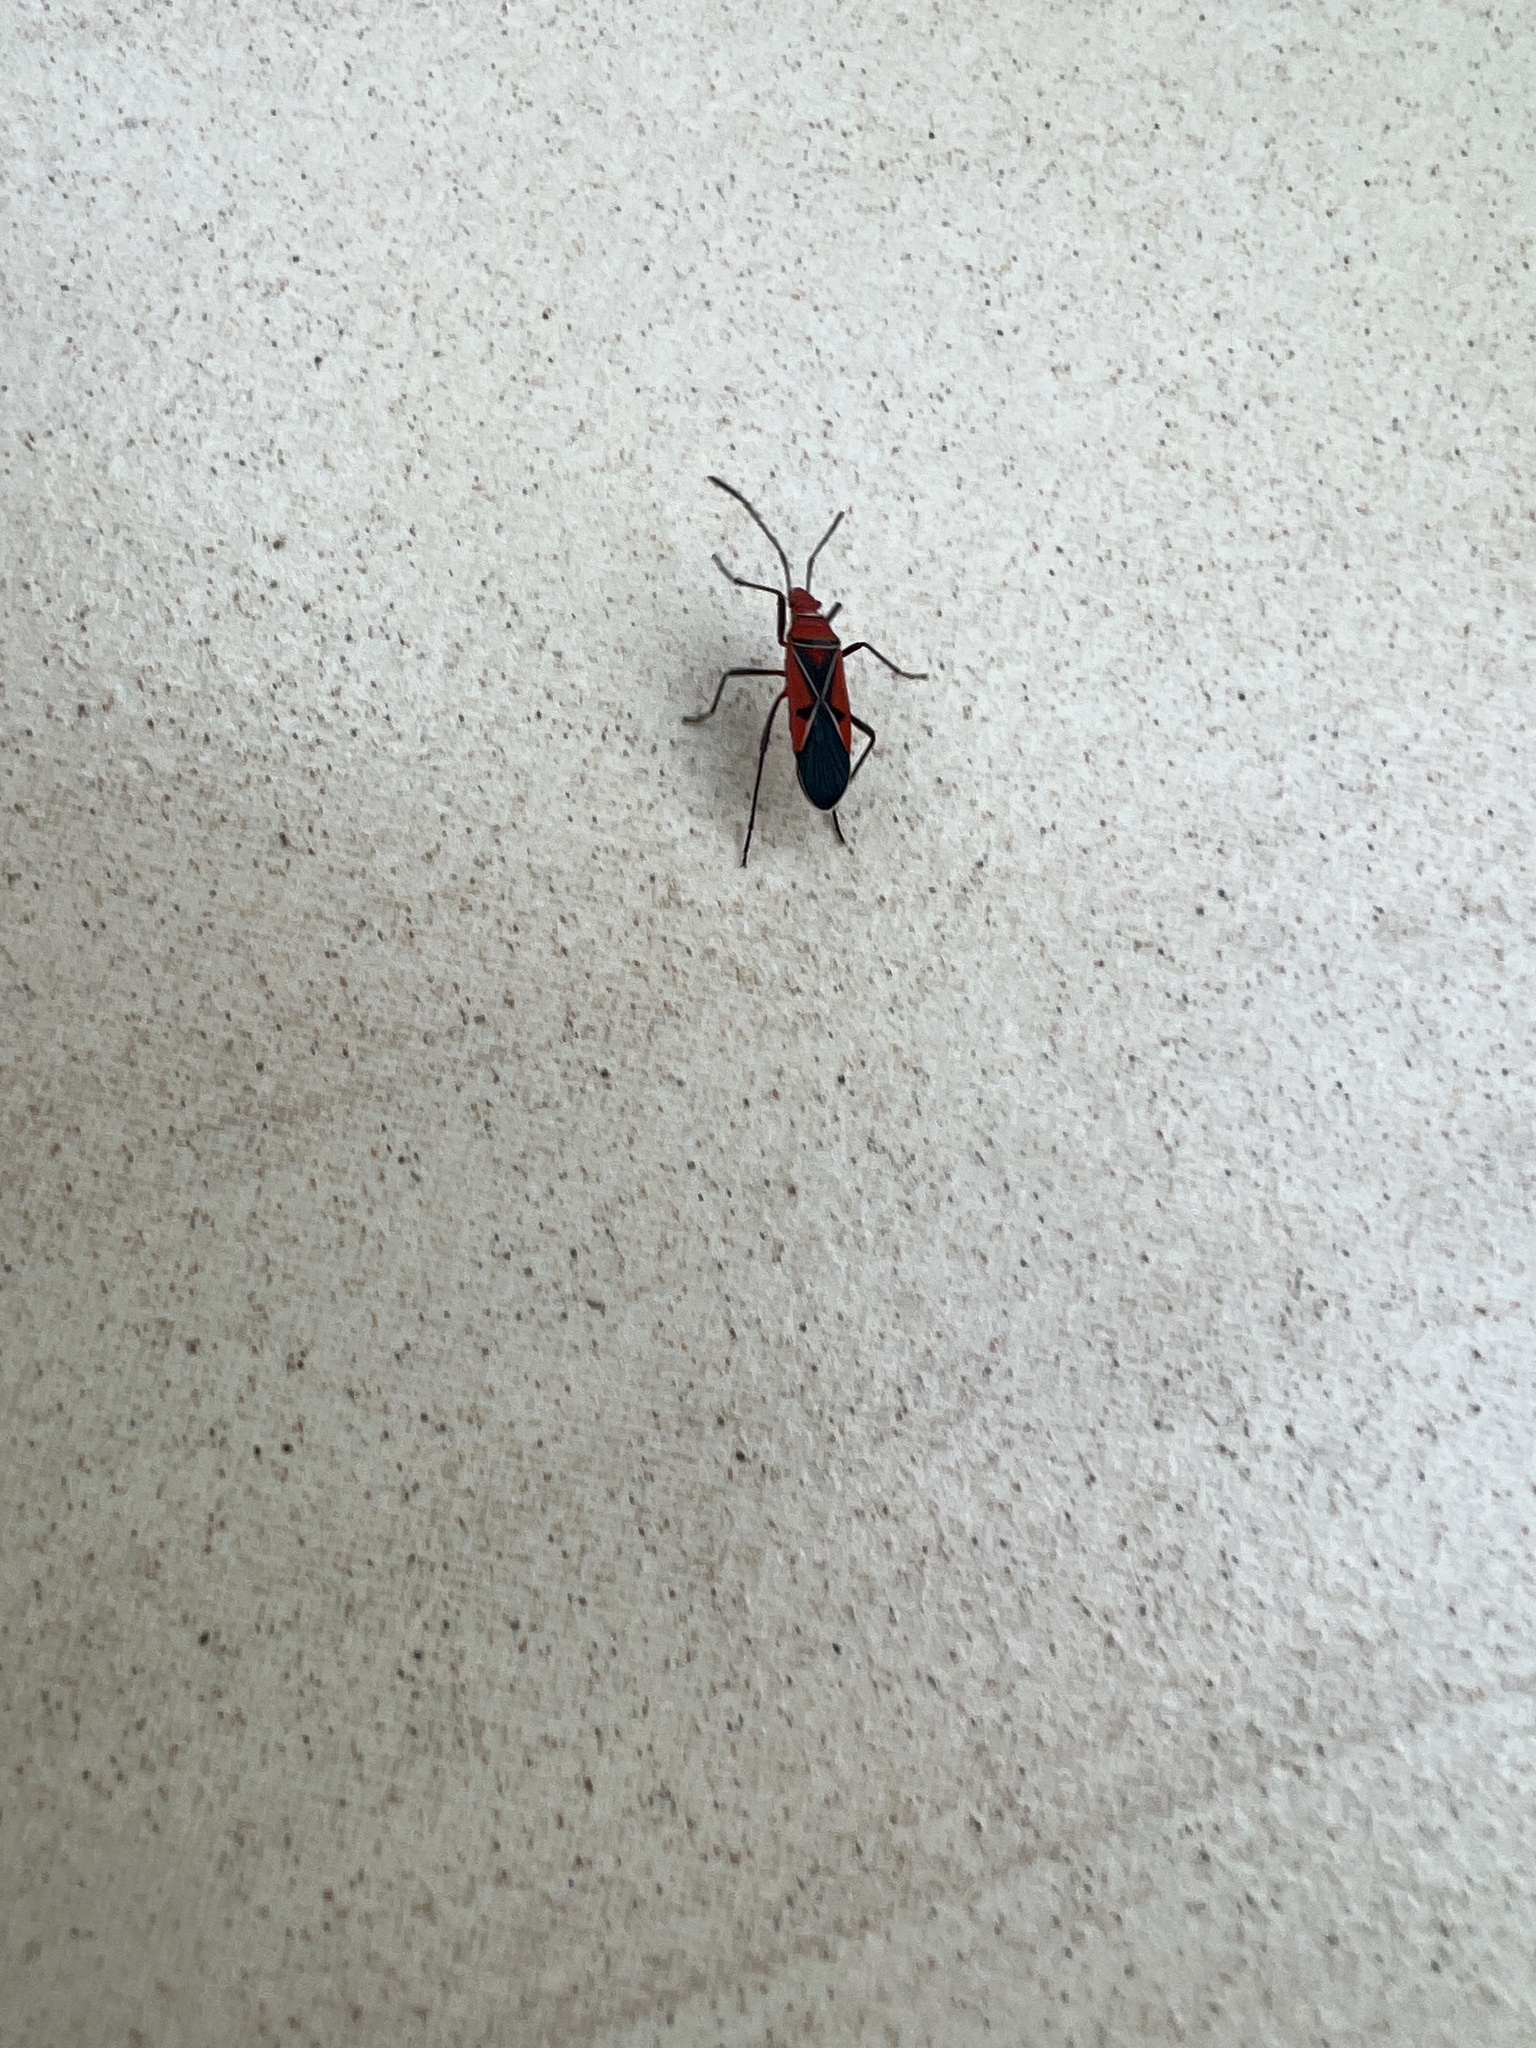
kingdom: Animalia
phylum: Arthropoda
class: Insecta
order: Hemiptera
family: Pyrrhocoridae
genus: Dysdercus
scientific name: Dysdercus andreae
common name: St. andrew's cotton stainer
